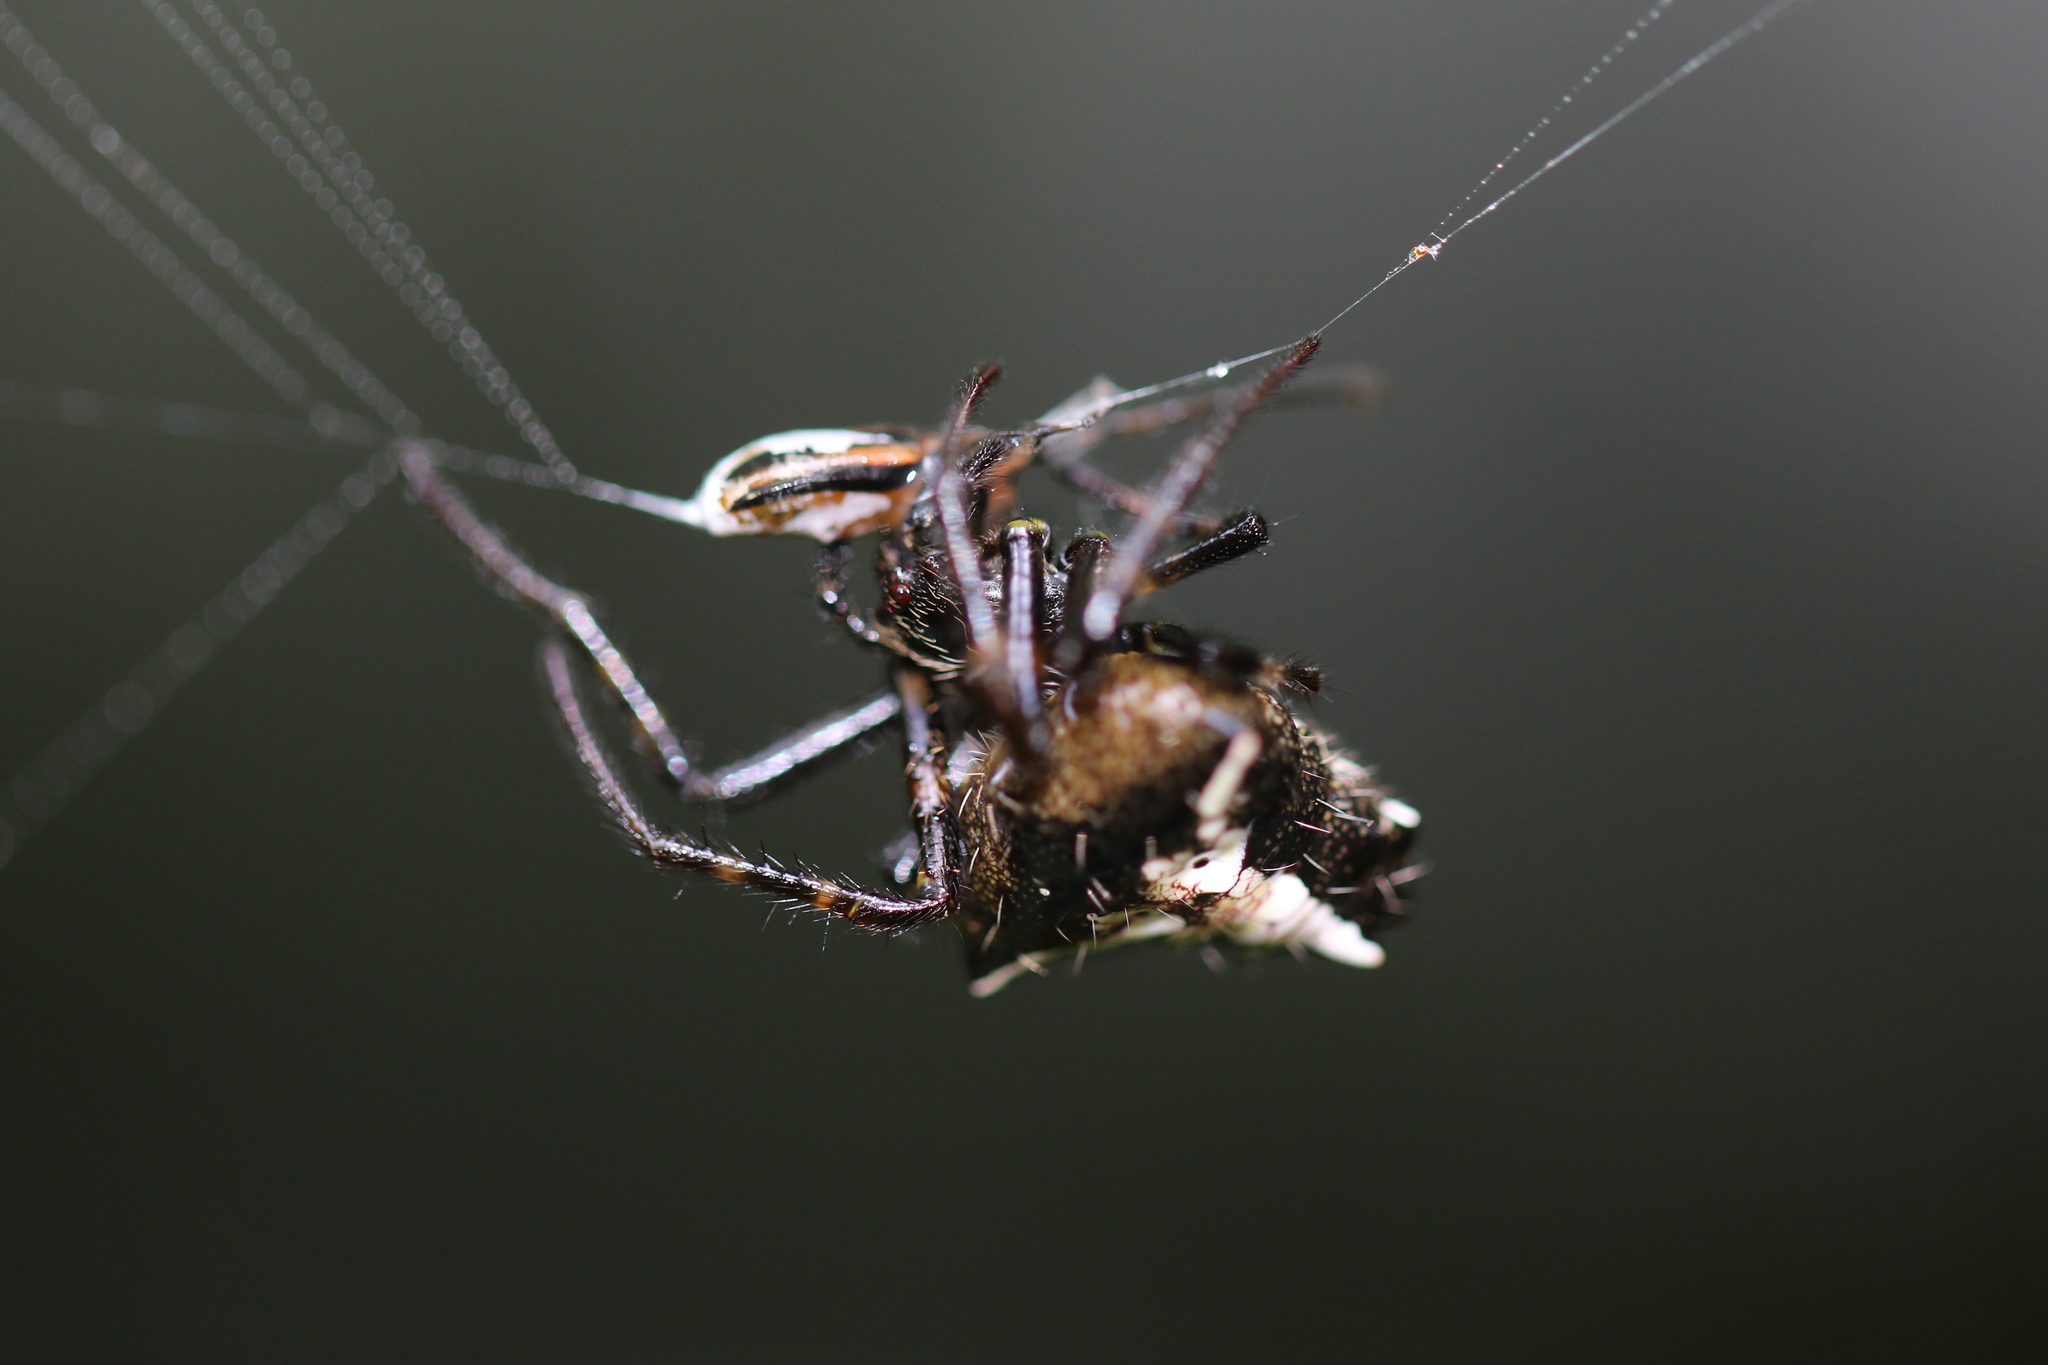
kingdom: Animalia
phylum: Arthropoda
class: Arachnida
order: Araneae
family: Araneidae
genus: Verrucosa
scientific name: Verrucosa scapofracta
